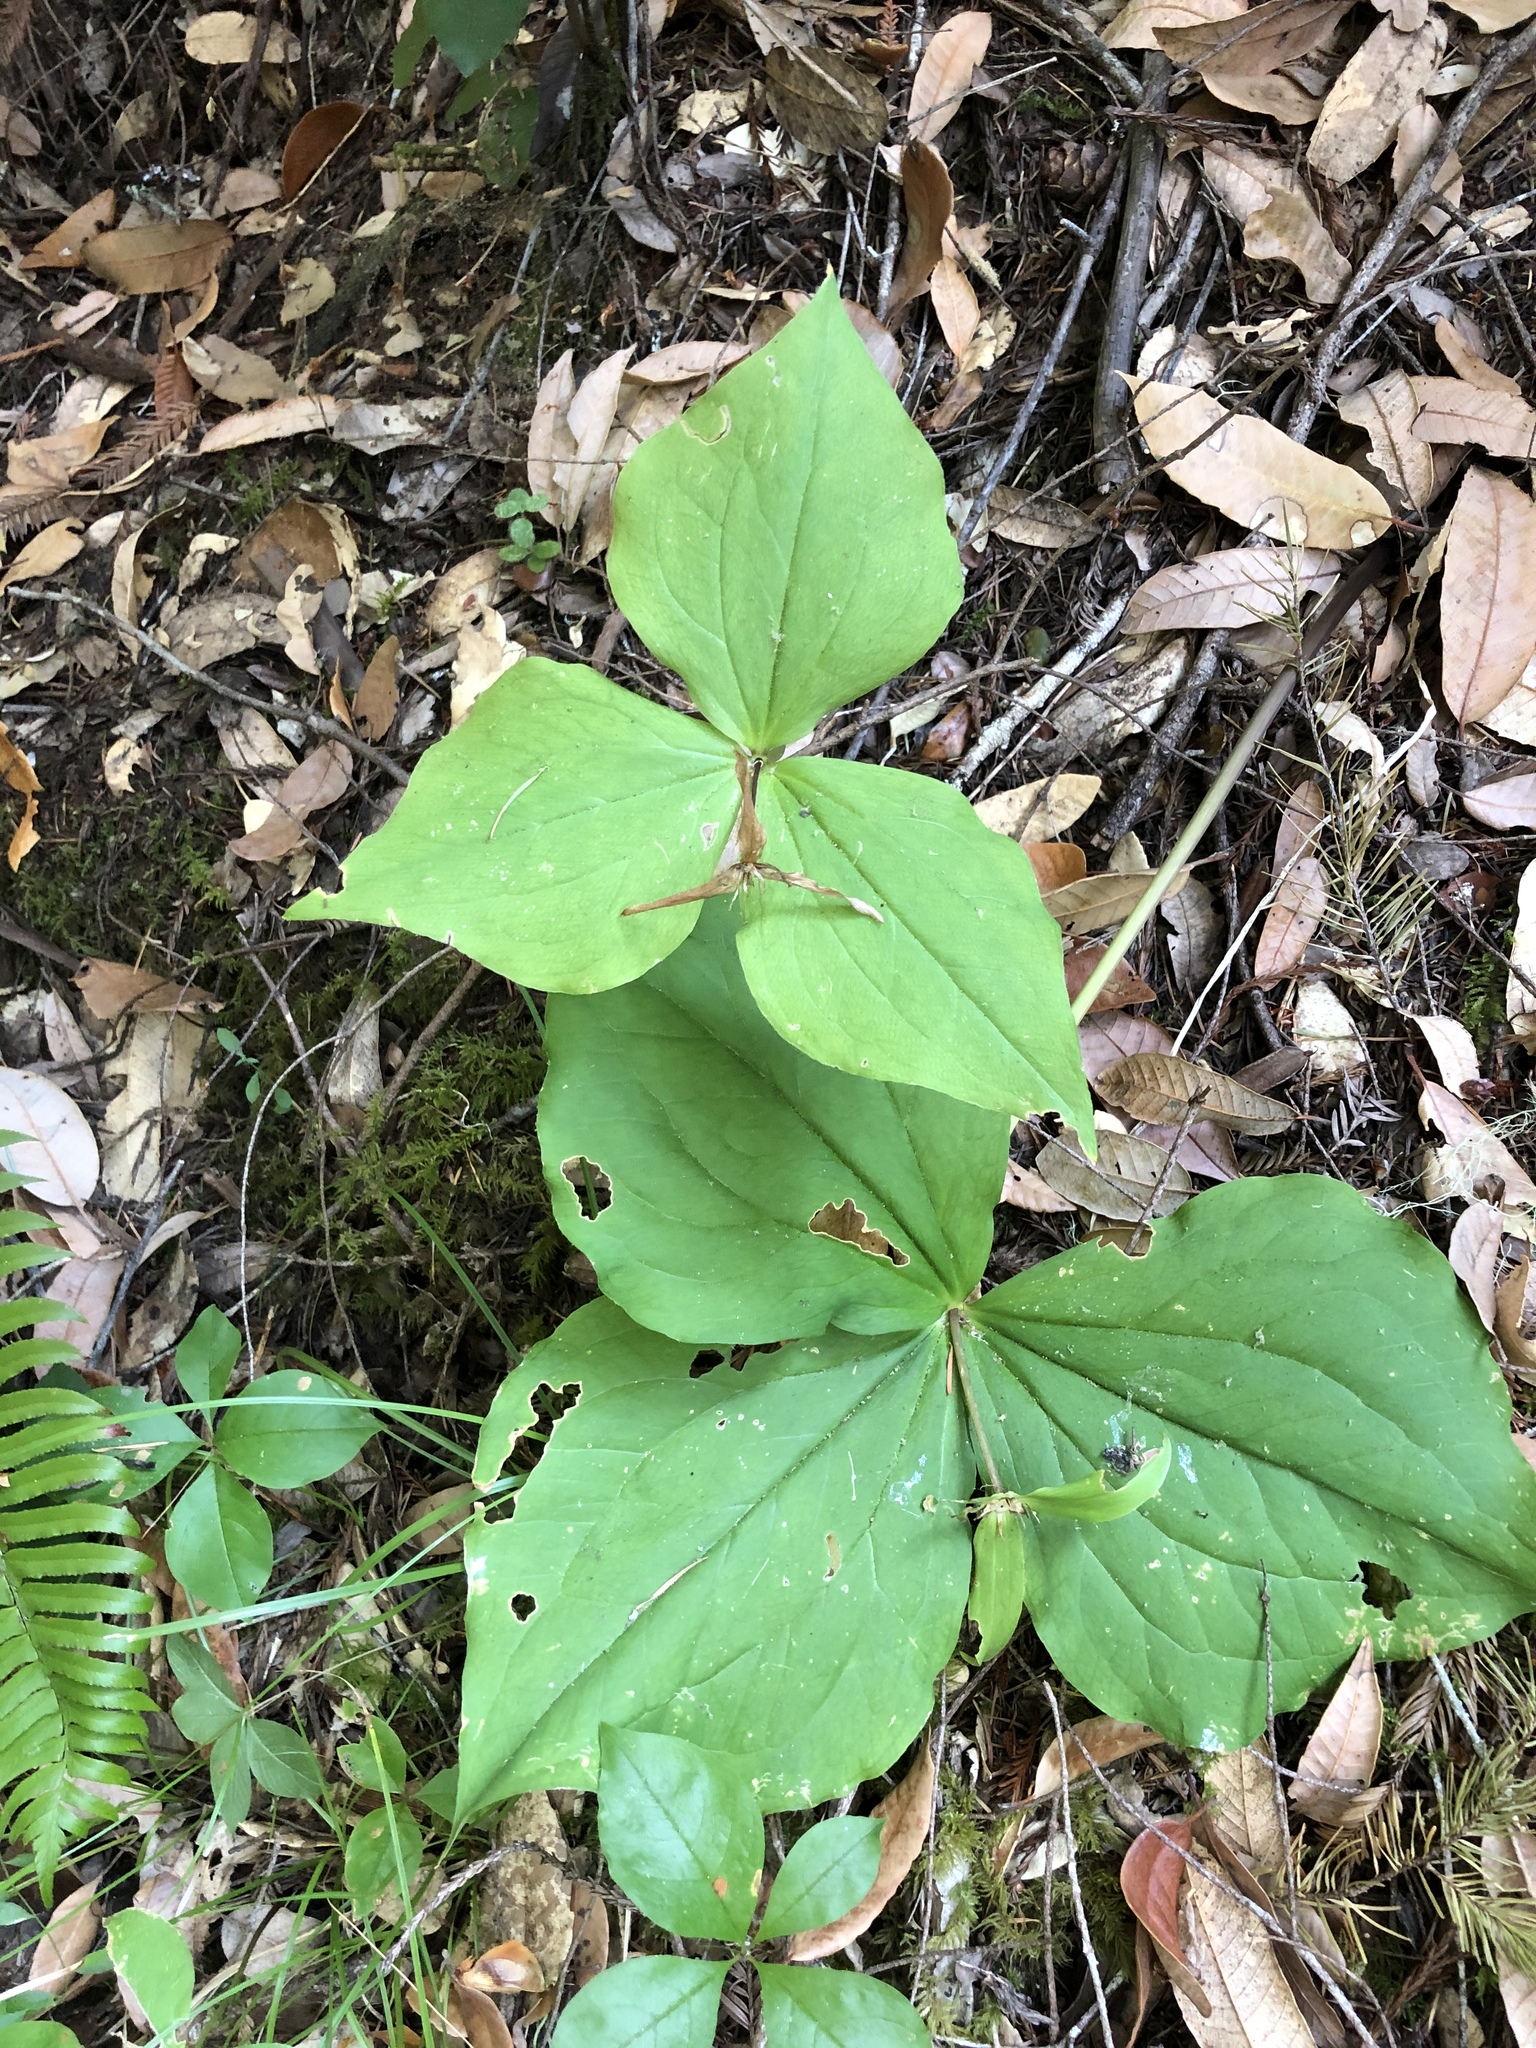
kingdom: Plantae
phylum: Tracheophyta
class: Liliopsida
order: Liliales
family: Melanthiaceae
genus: Trillium
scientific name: Trillium ovatum
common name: Pacific trillium
